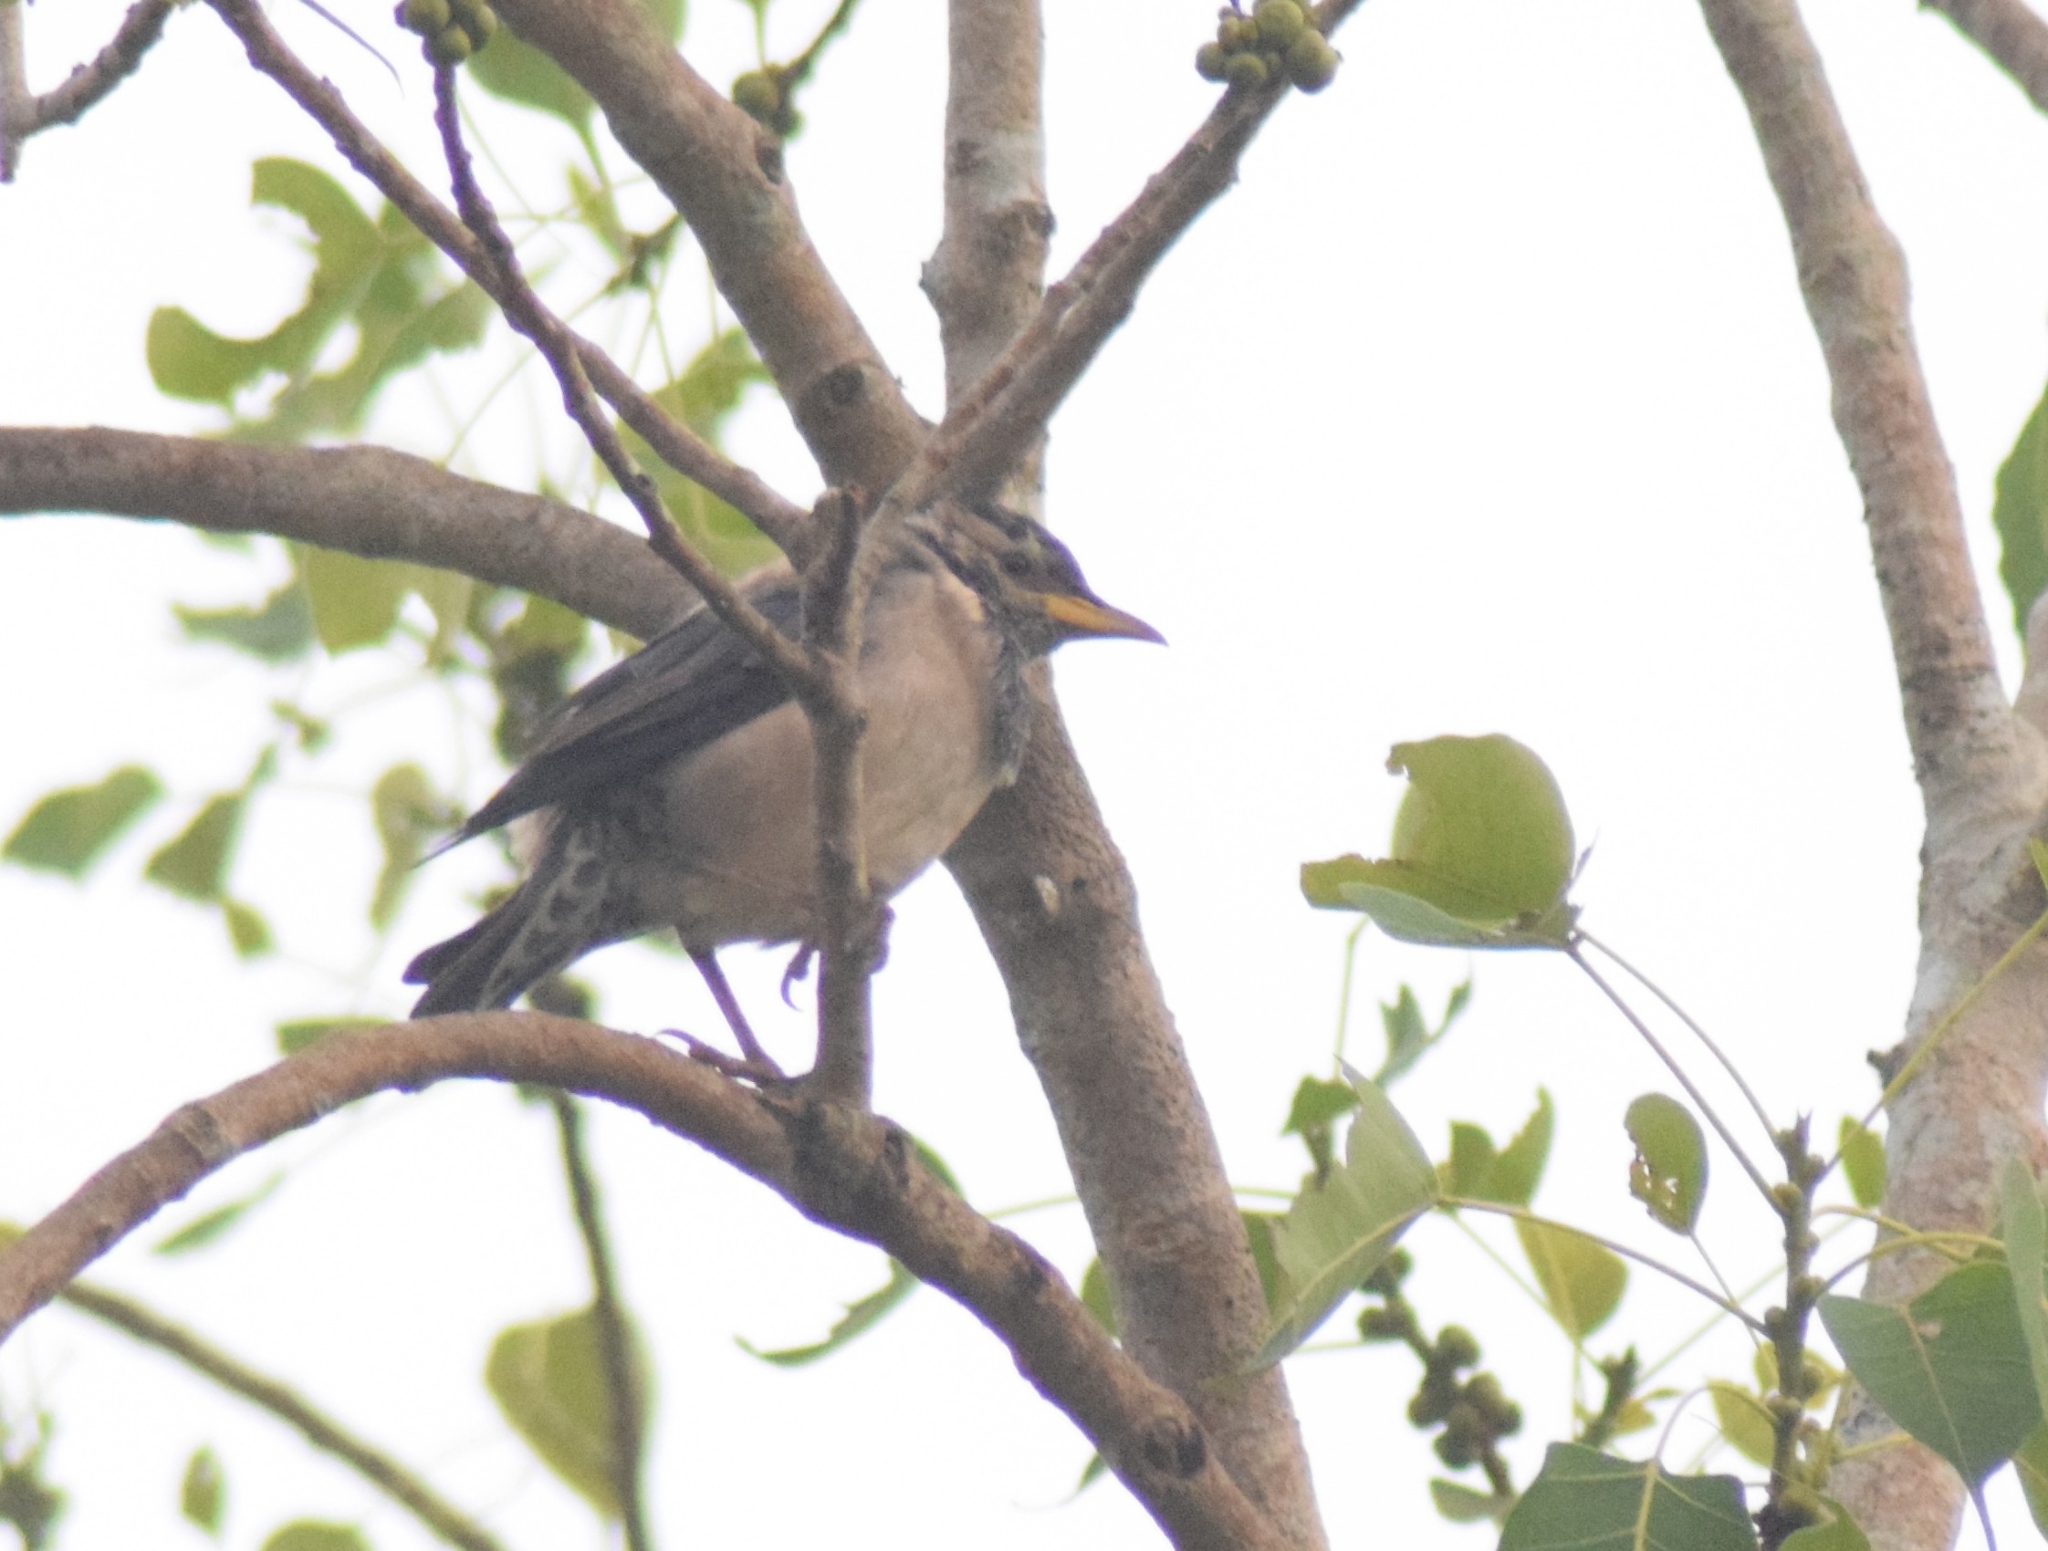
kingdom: Animalia
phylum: Chordata
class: Aves
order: Passeriformes
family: Sturnidae
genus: Pastor
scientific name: Pastor roseus
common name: Rosy starling
